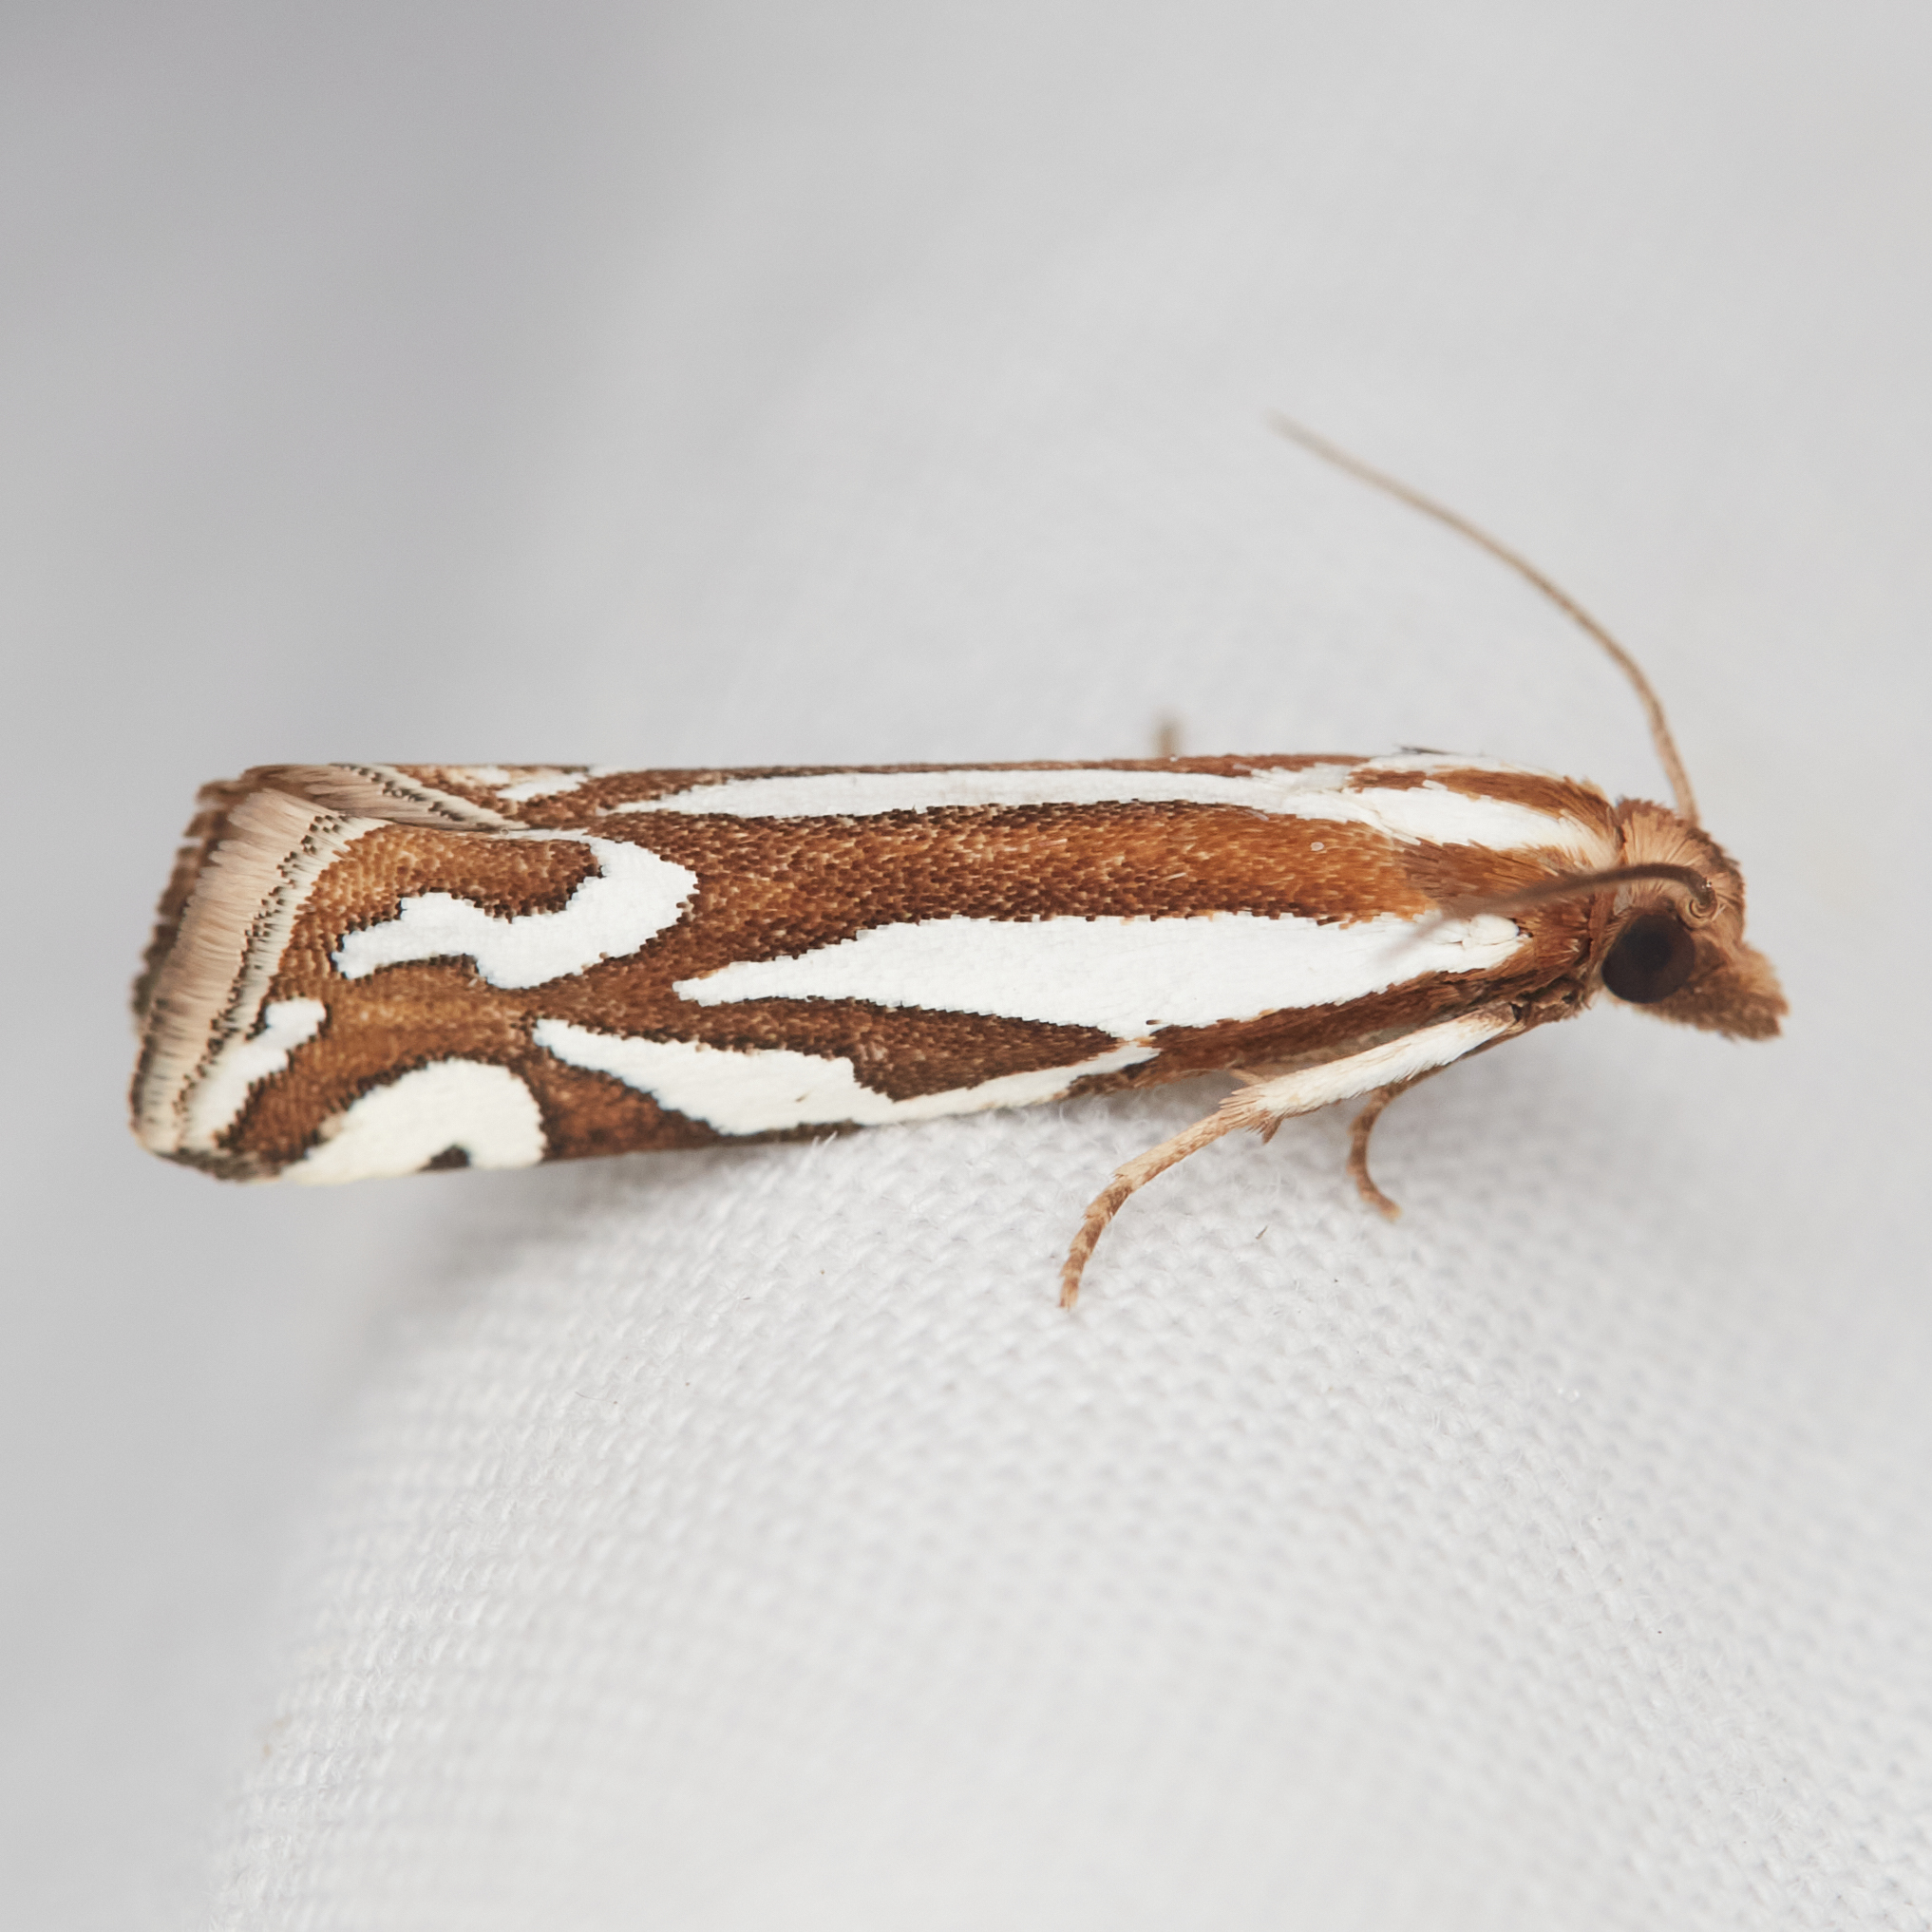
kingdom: Animalia
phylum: Arthropoda
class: Insecta
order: Lepidoptera
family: Tortricidae
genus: Pelochrista
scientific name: Pelochrista ridingsana
